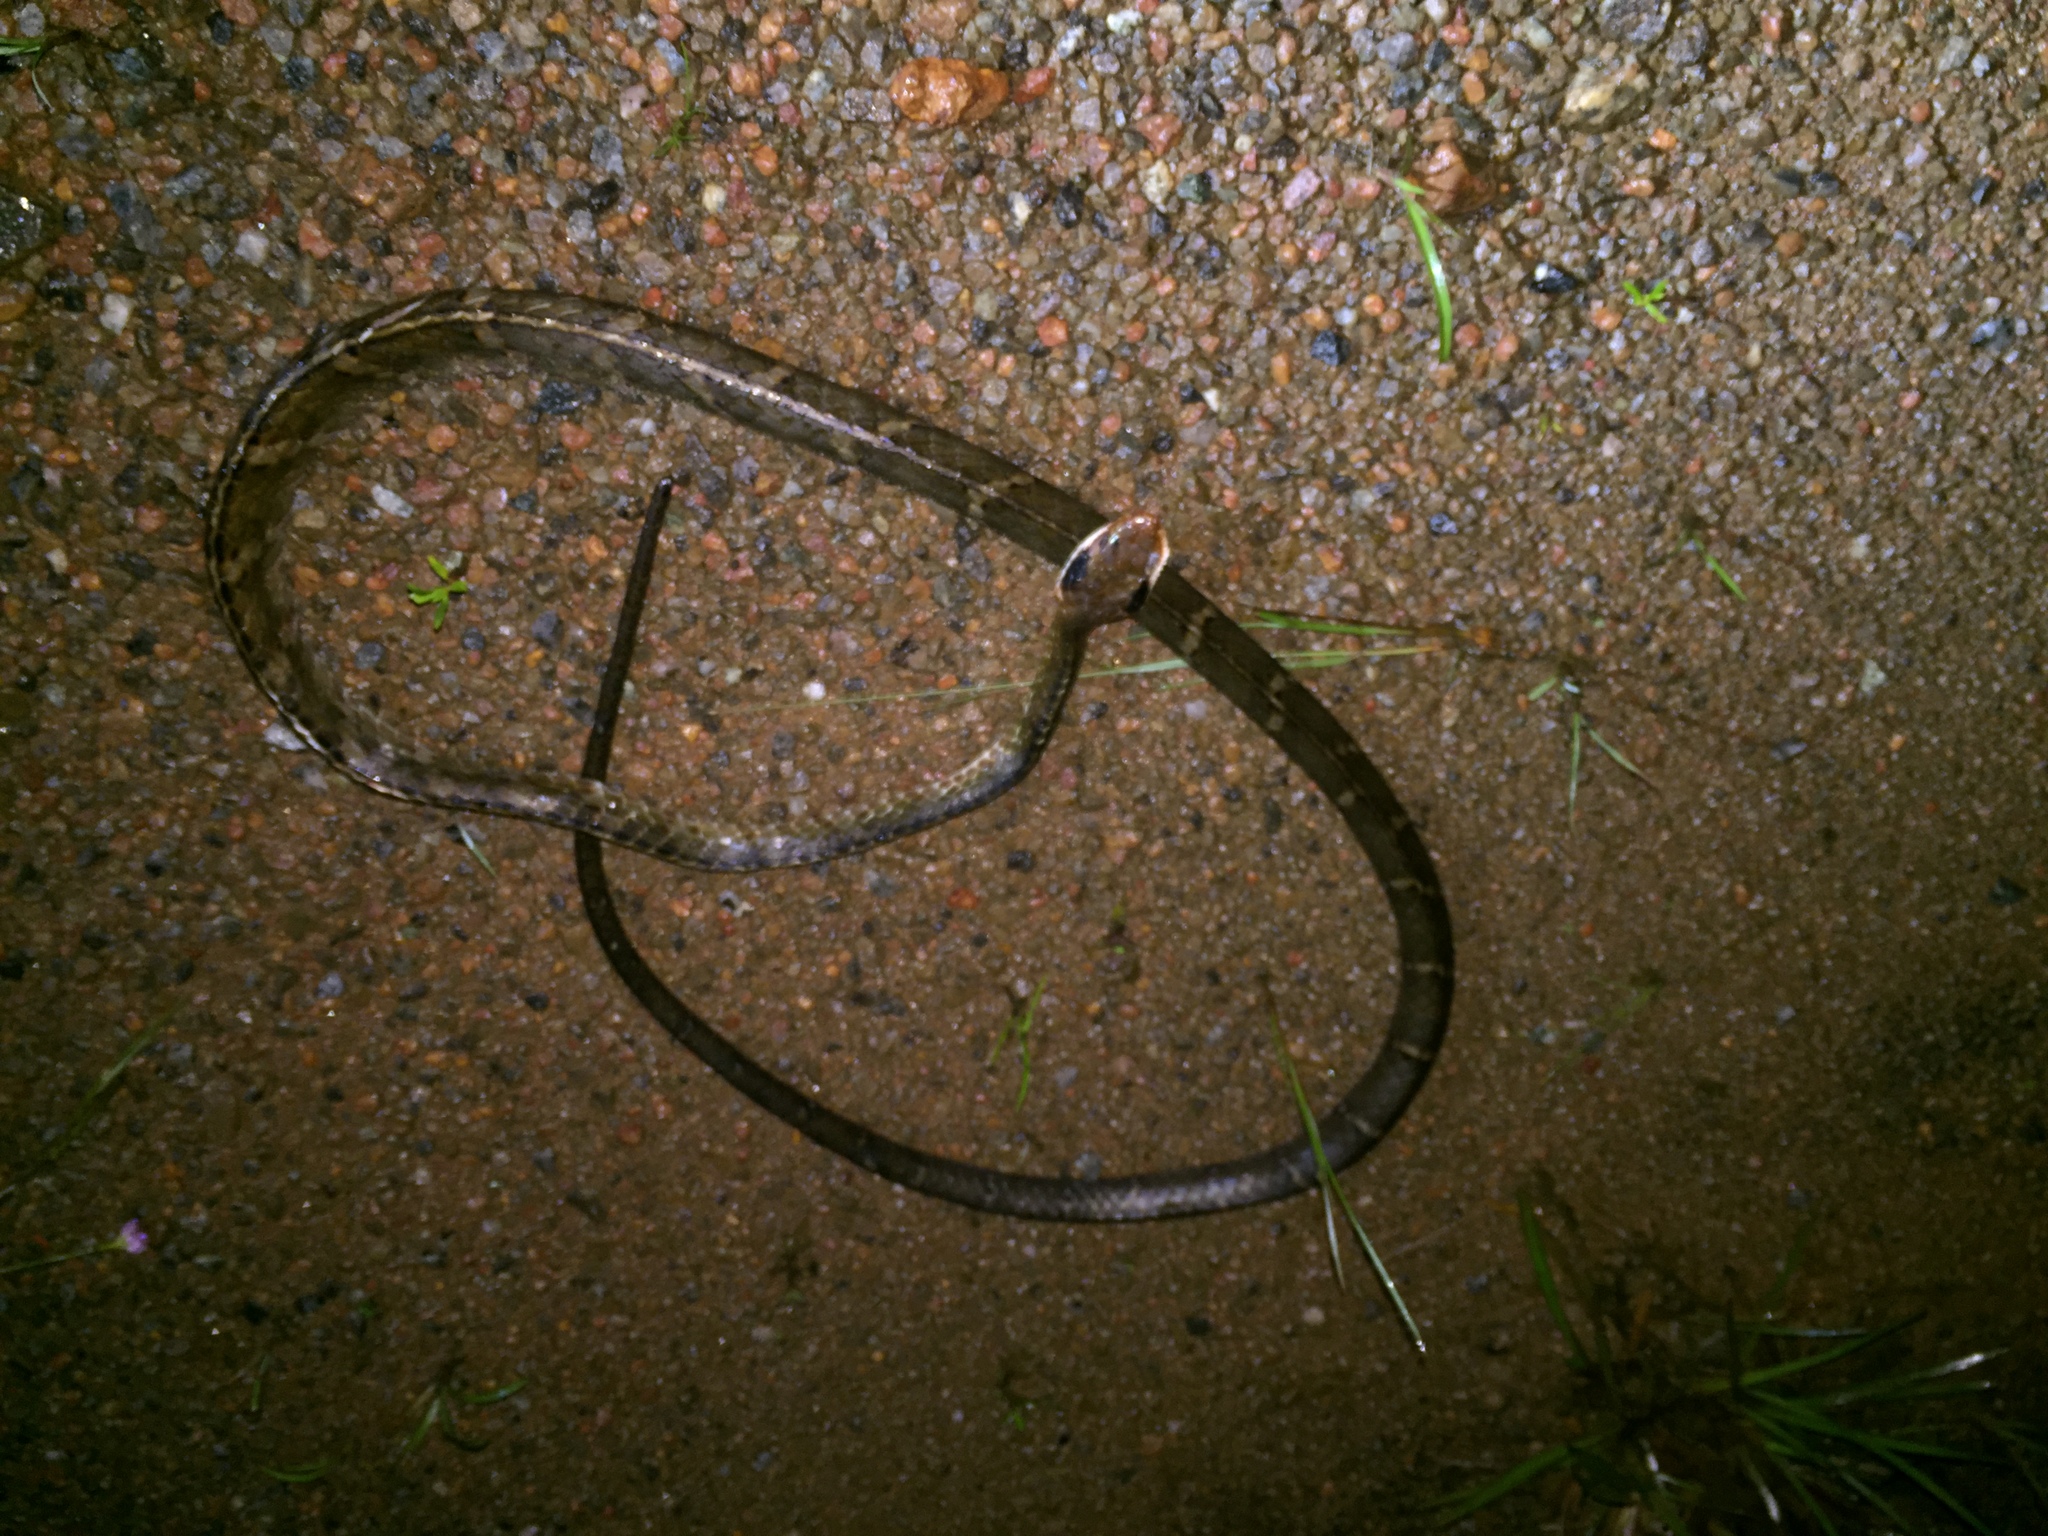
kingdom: Animalia
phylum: Chordata
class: Squamata
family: Colubridae
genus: Chironius
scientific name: Chironius fuscus
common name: Brown sipo
